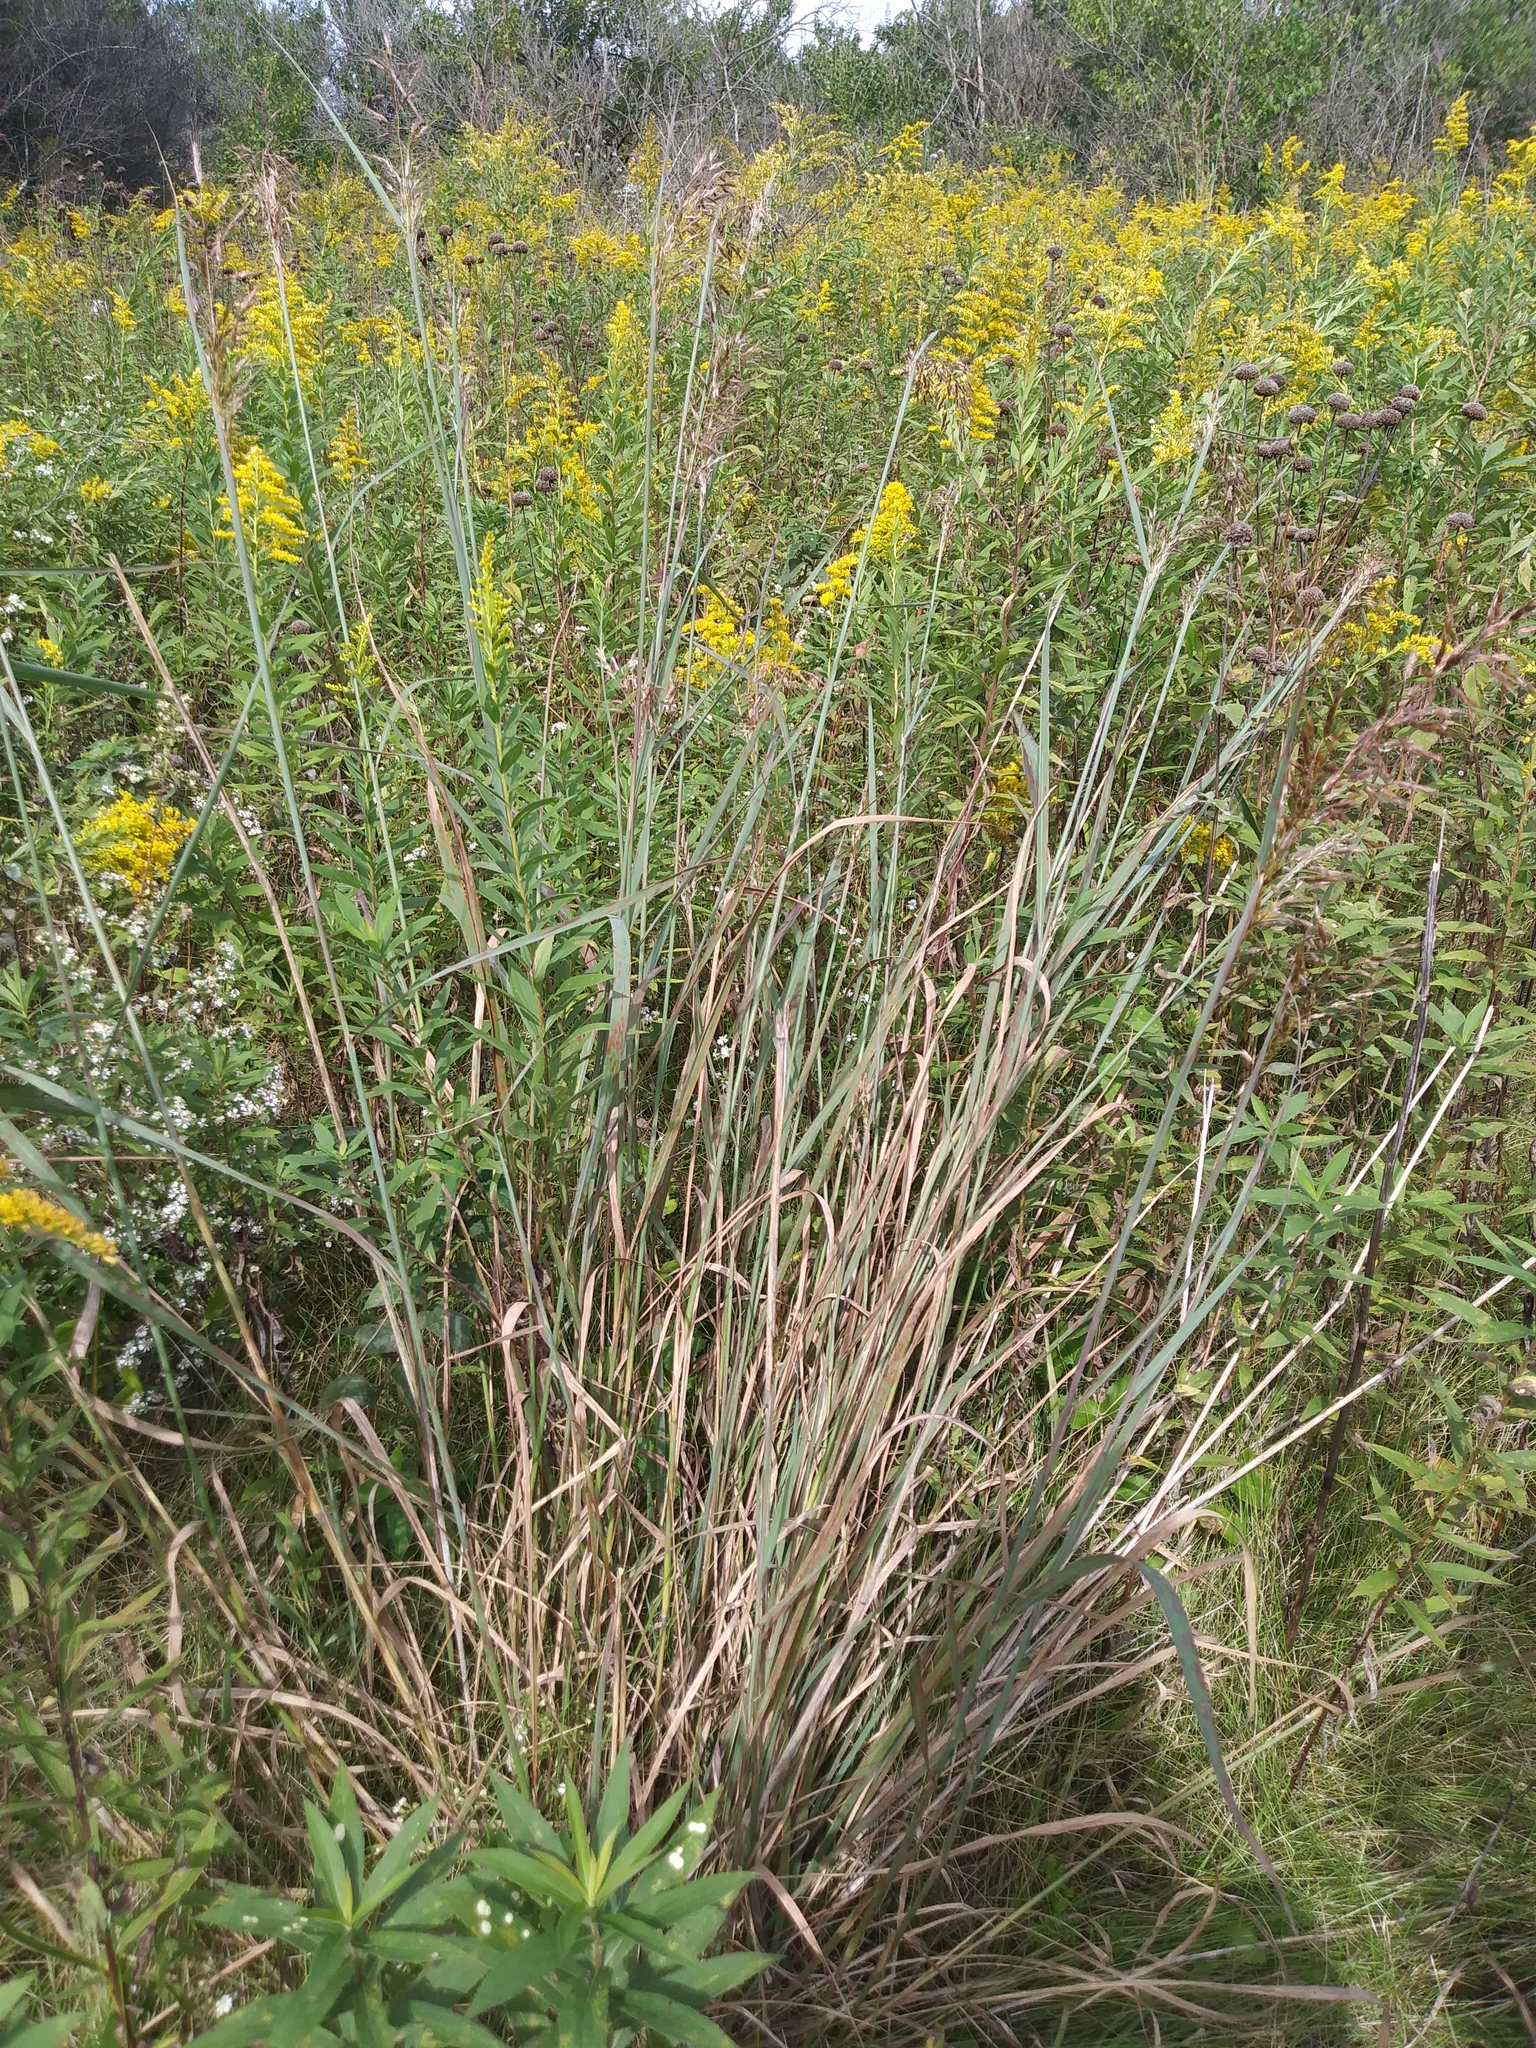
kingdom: Plantae
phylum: Tracheophyta
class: Liliopsida
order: Poales
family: Poaceae
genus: Sorghastrum
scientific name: Sorghastrum nutans
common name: Indian grass
